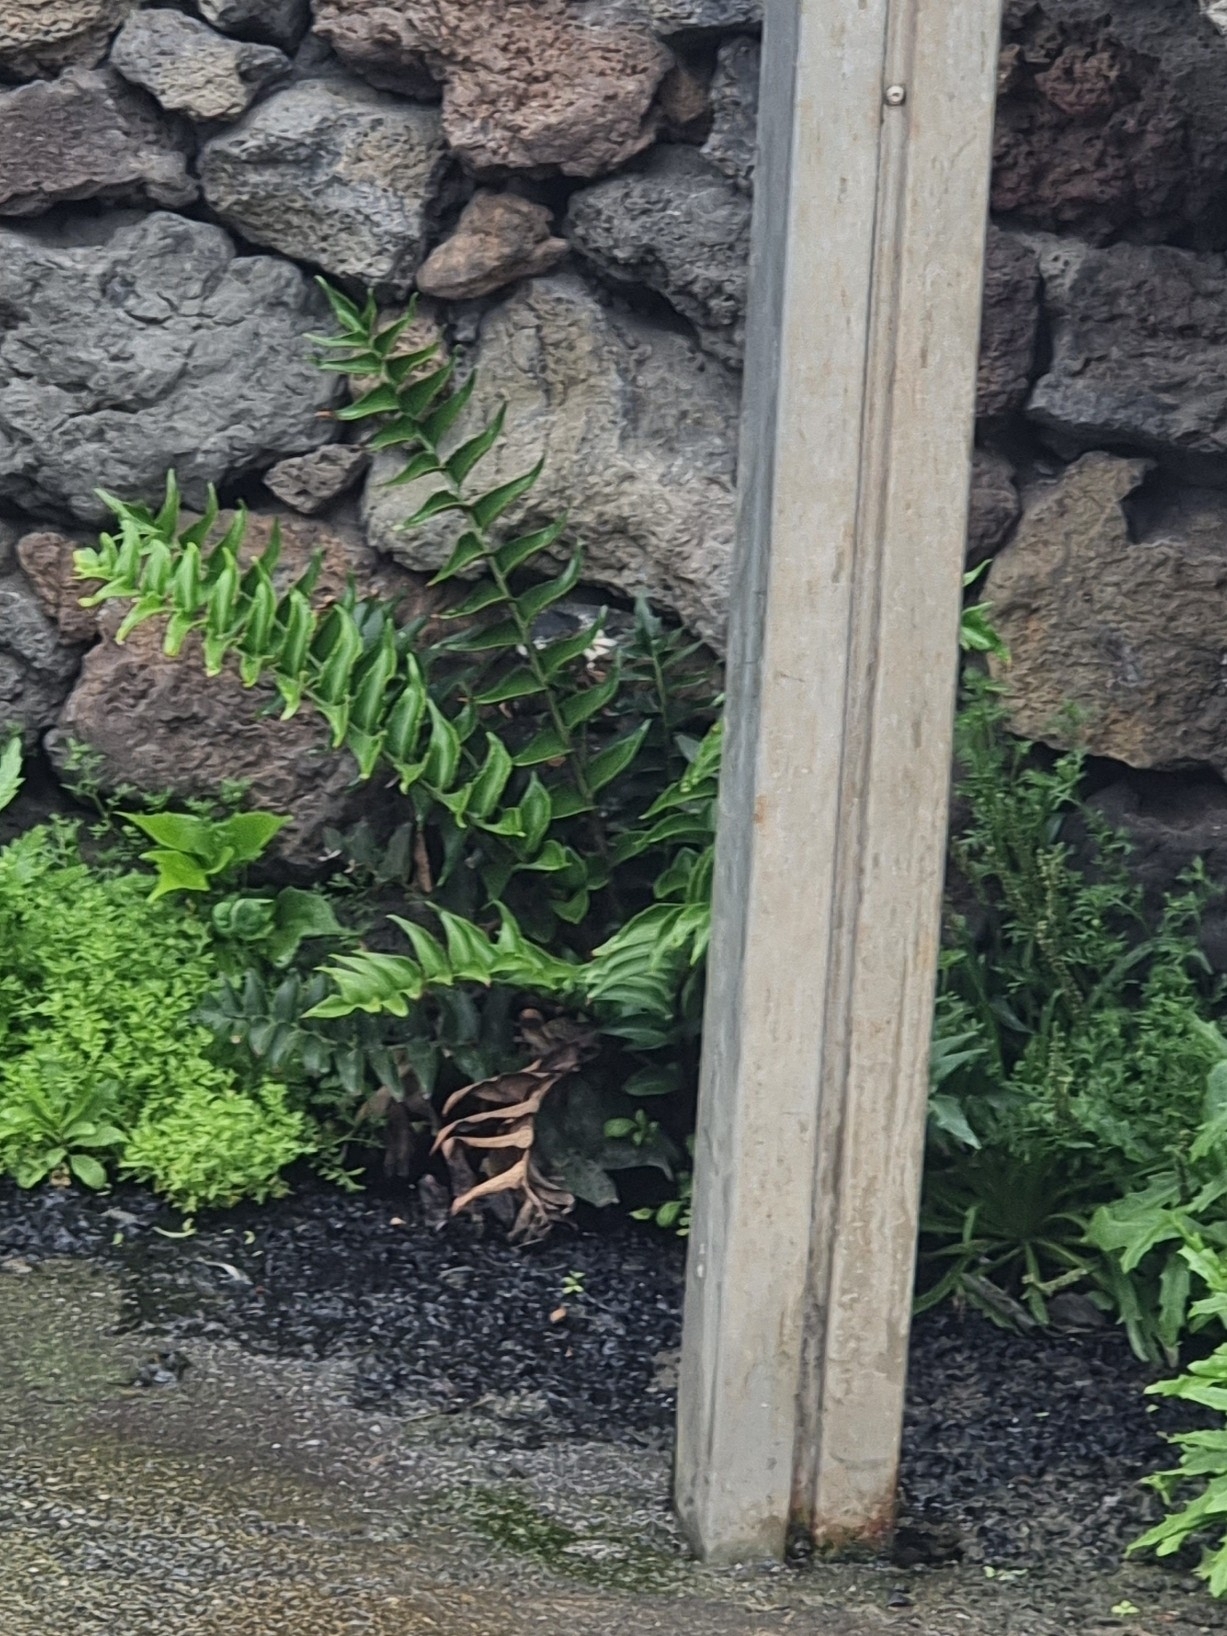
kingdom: Plantae
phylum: Tracheophyta
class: Polypodiopsida
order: Polypodiales
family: Dryopteridaceae
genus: Cyrtomium
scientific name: Cyrtomium falcatum
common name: House holly-fern
